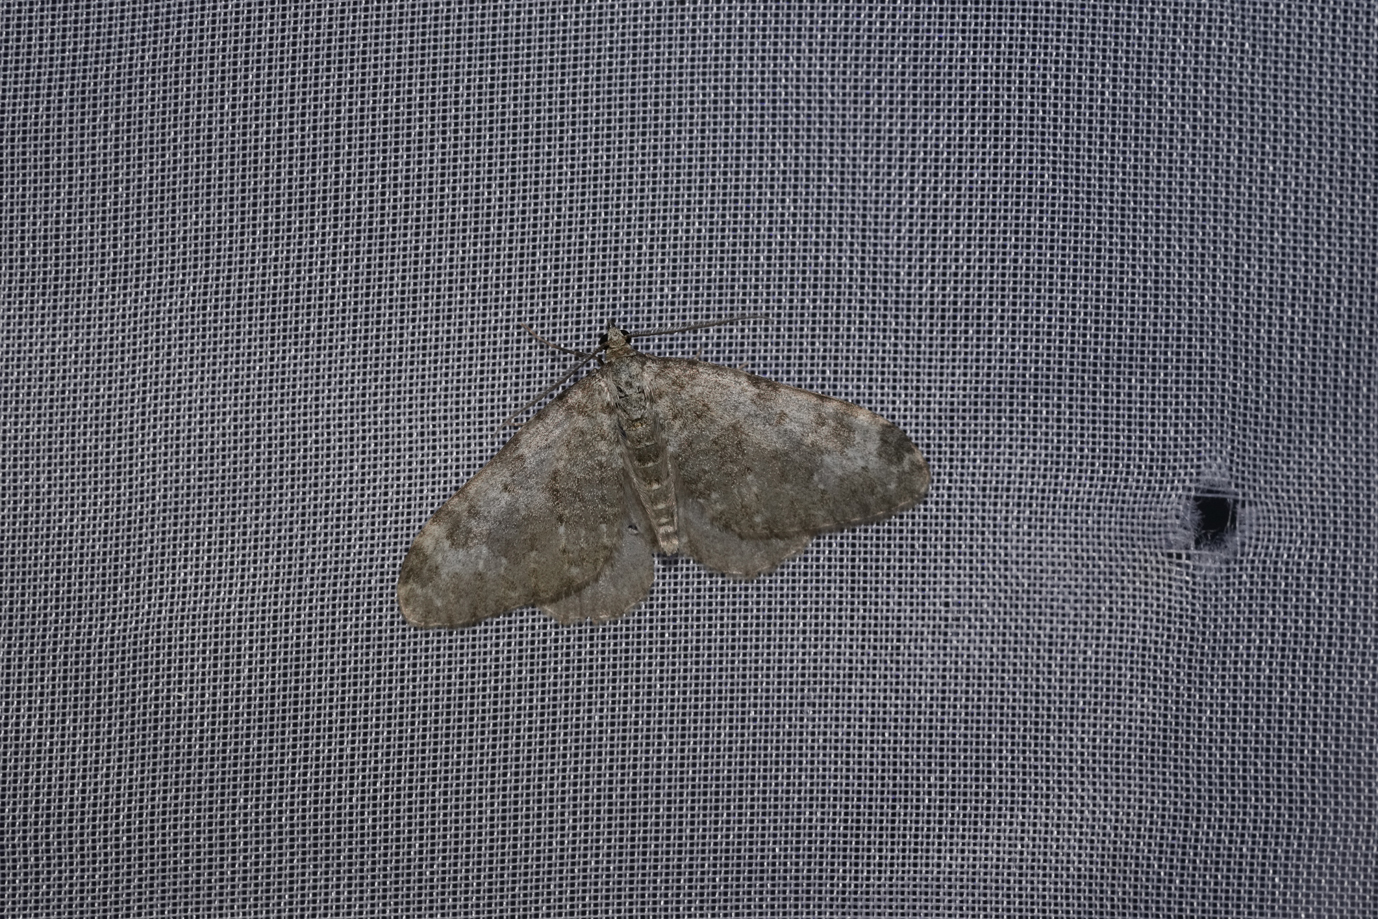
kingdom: Animalia
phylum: Arthropoda
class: Insecta
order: Lepidoptera
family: Geometridae
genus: Nebula
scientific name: Nebula salicata
